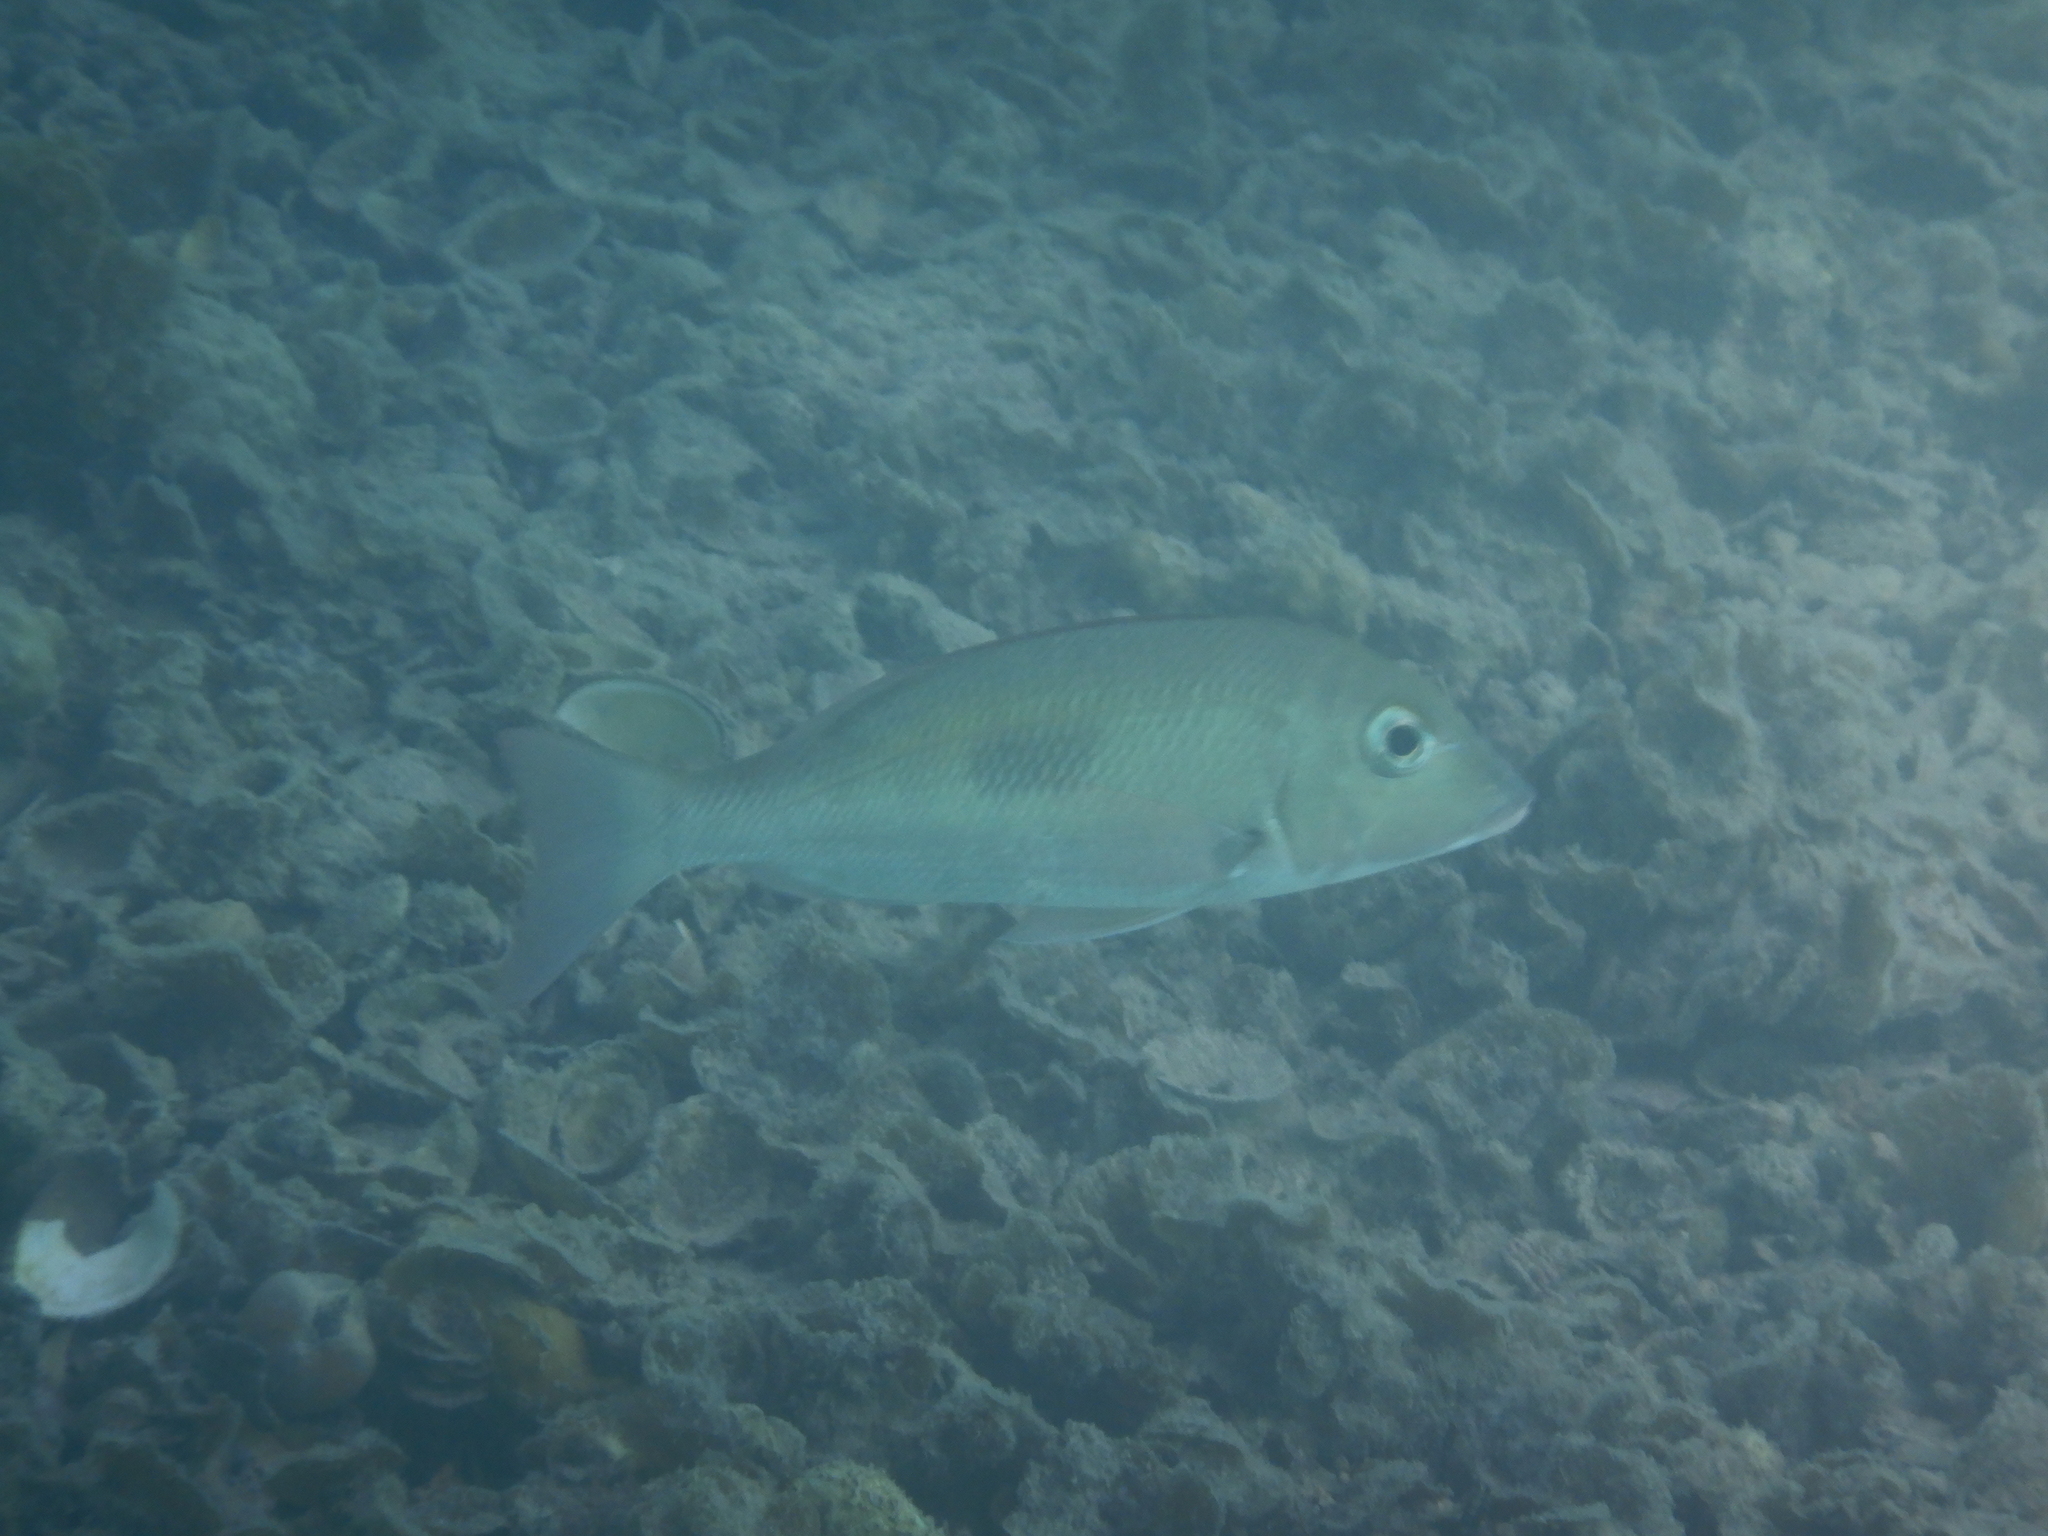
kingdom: Animalia
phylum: Chordata
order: Perciformes
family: Lethrinidae
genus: Lethrinus
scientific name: Lethrinus harak
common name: Blackspot emperor
